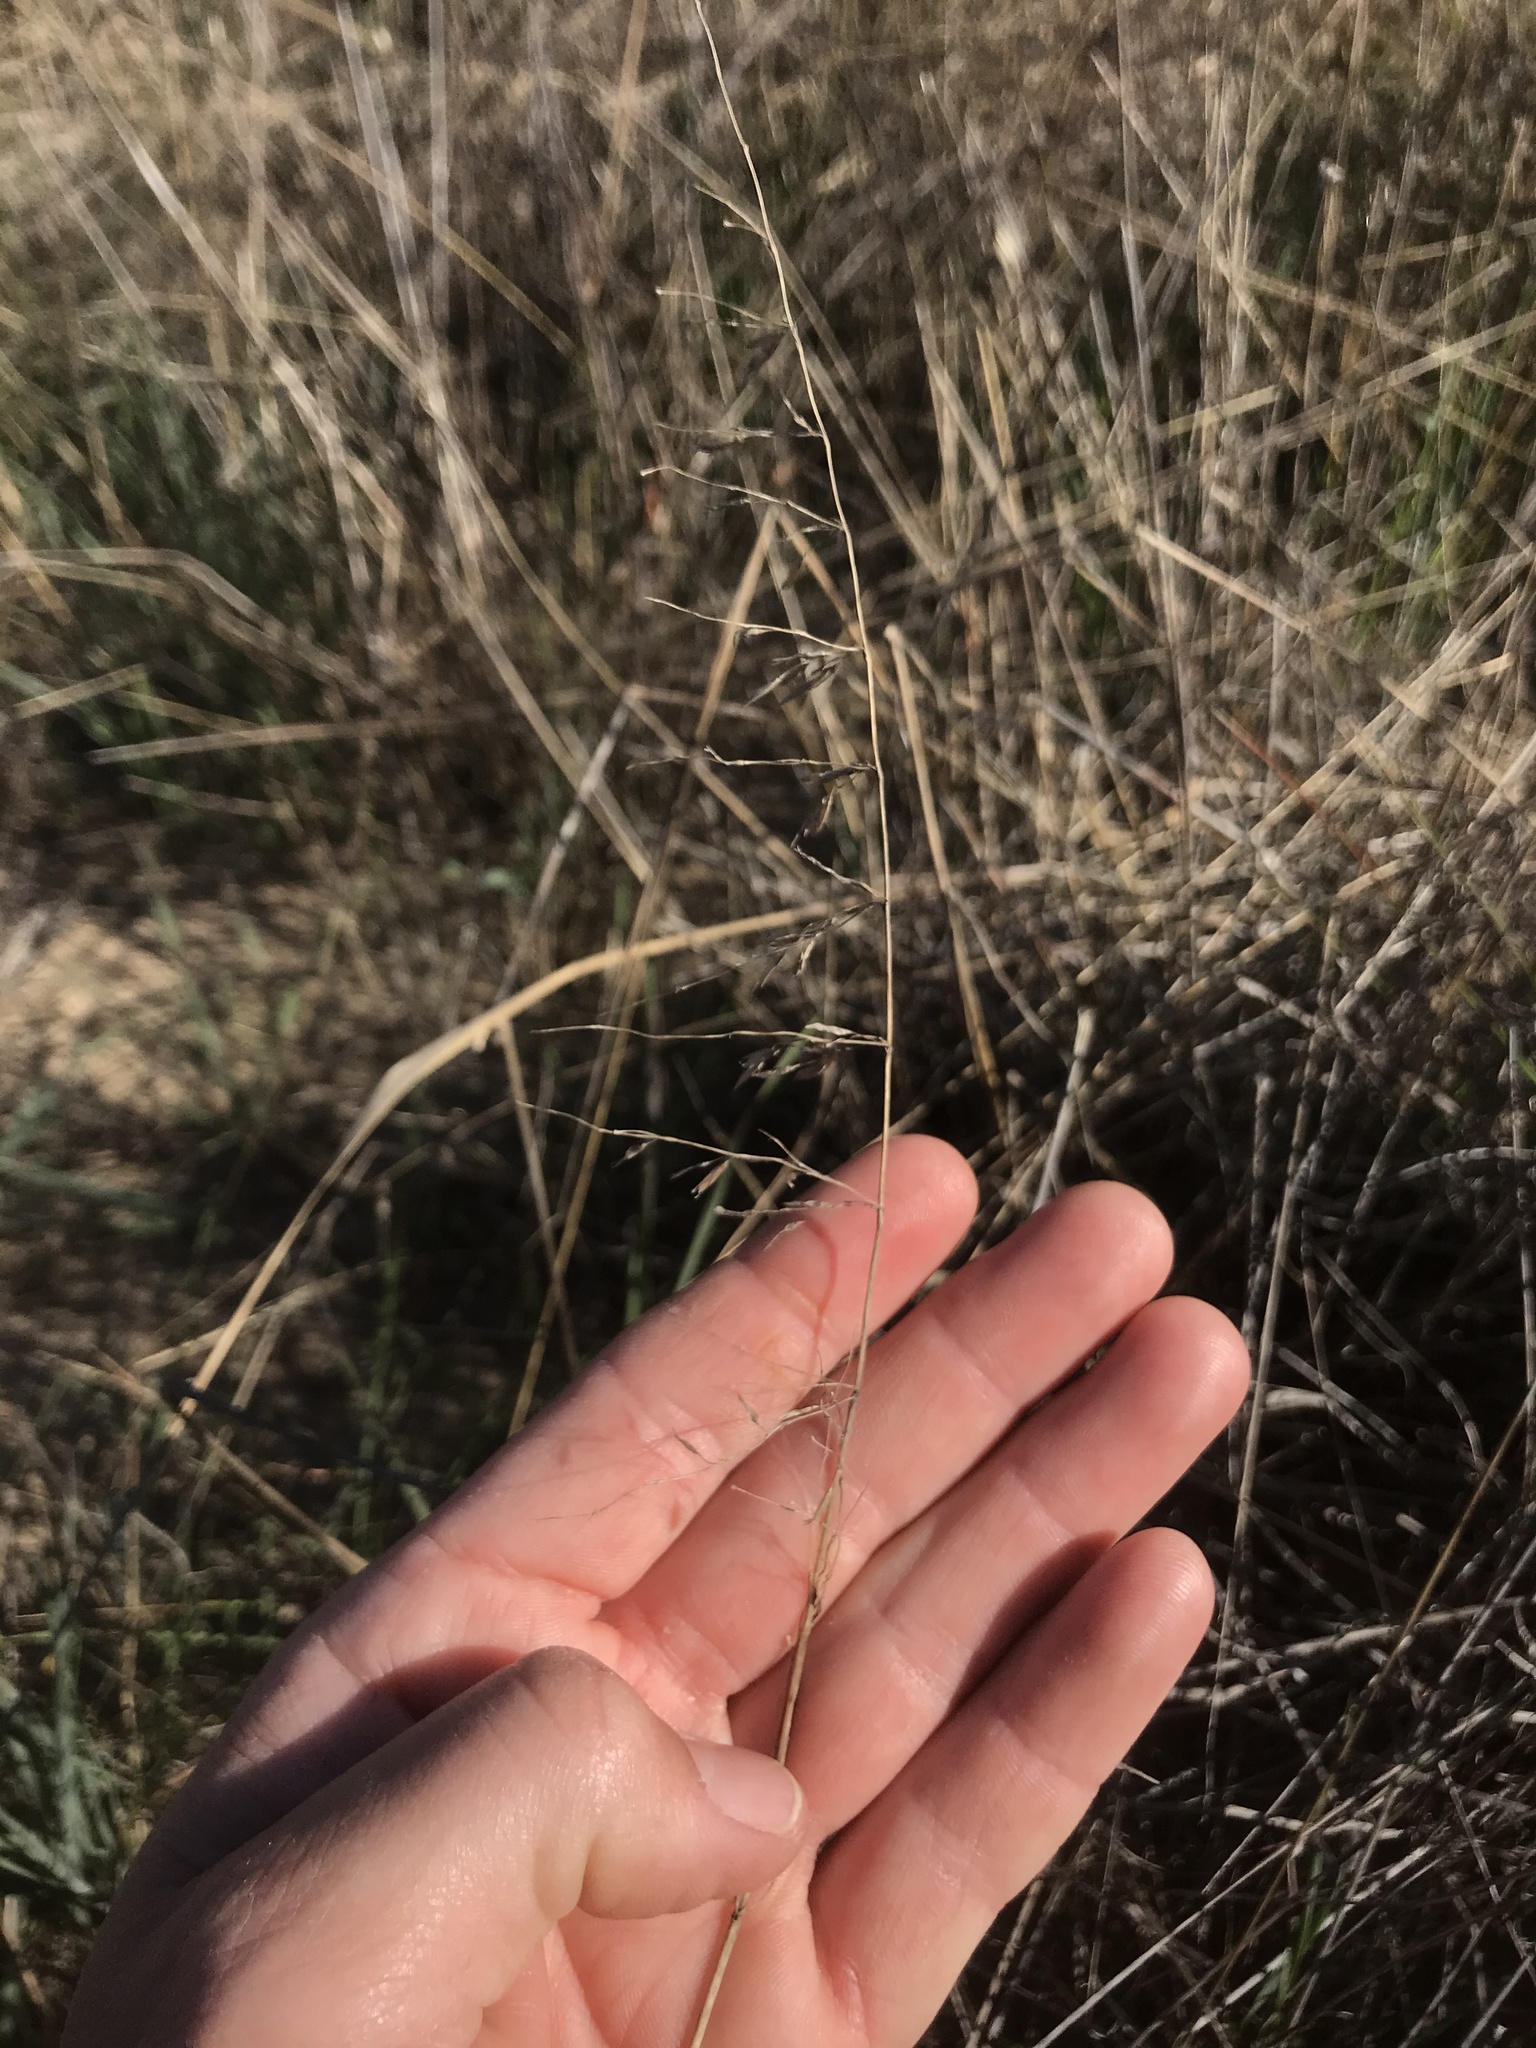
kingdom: Plantae
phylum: Tracheophyta
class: Liliopsida
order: Poales
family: Poaceae
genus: Ehrharta
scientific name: Ehrharta calycina
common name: Perennial veldtgrass
